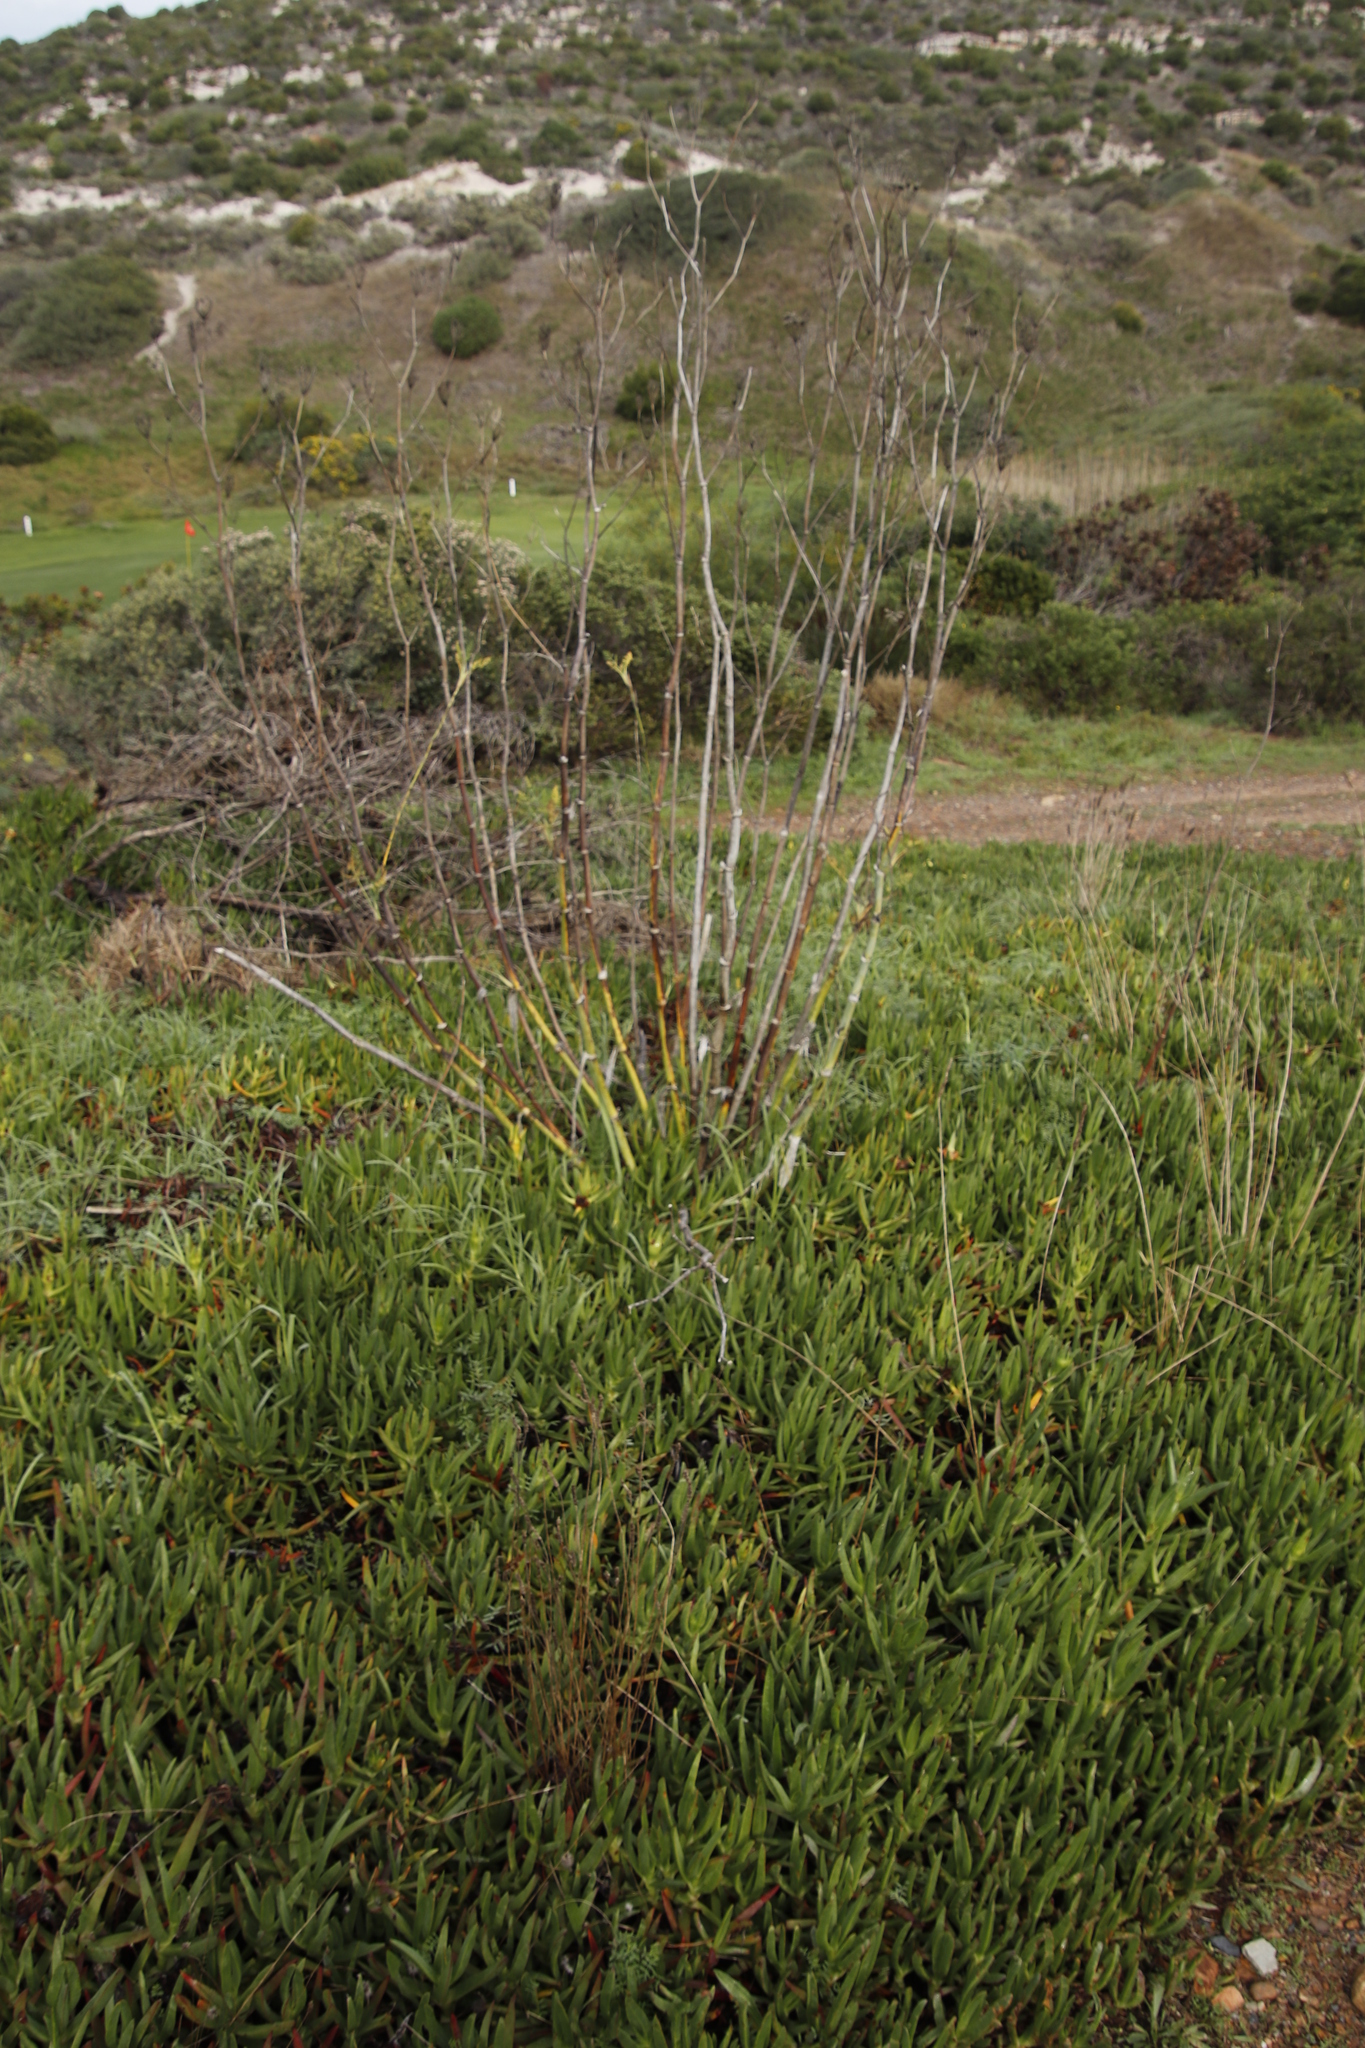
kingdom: Plantae
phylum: Tracheophyta
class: Magnoliopsida
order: Apiales
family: Apiaceae
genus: Foeniculum
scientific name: Foeniculum vulgare
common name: Fennel
